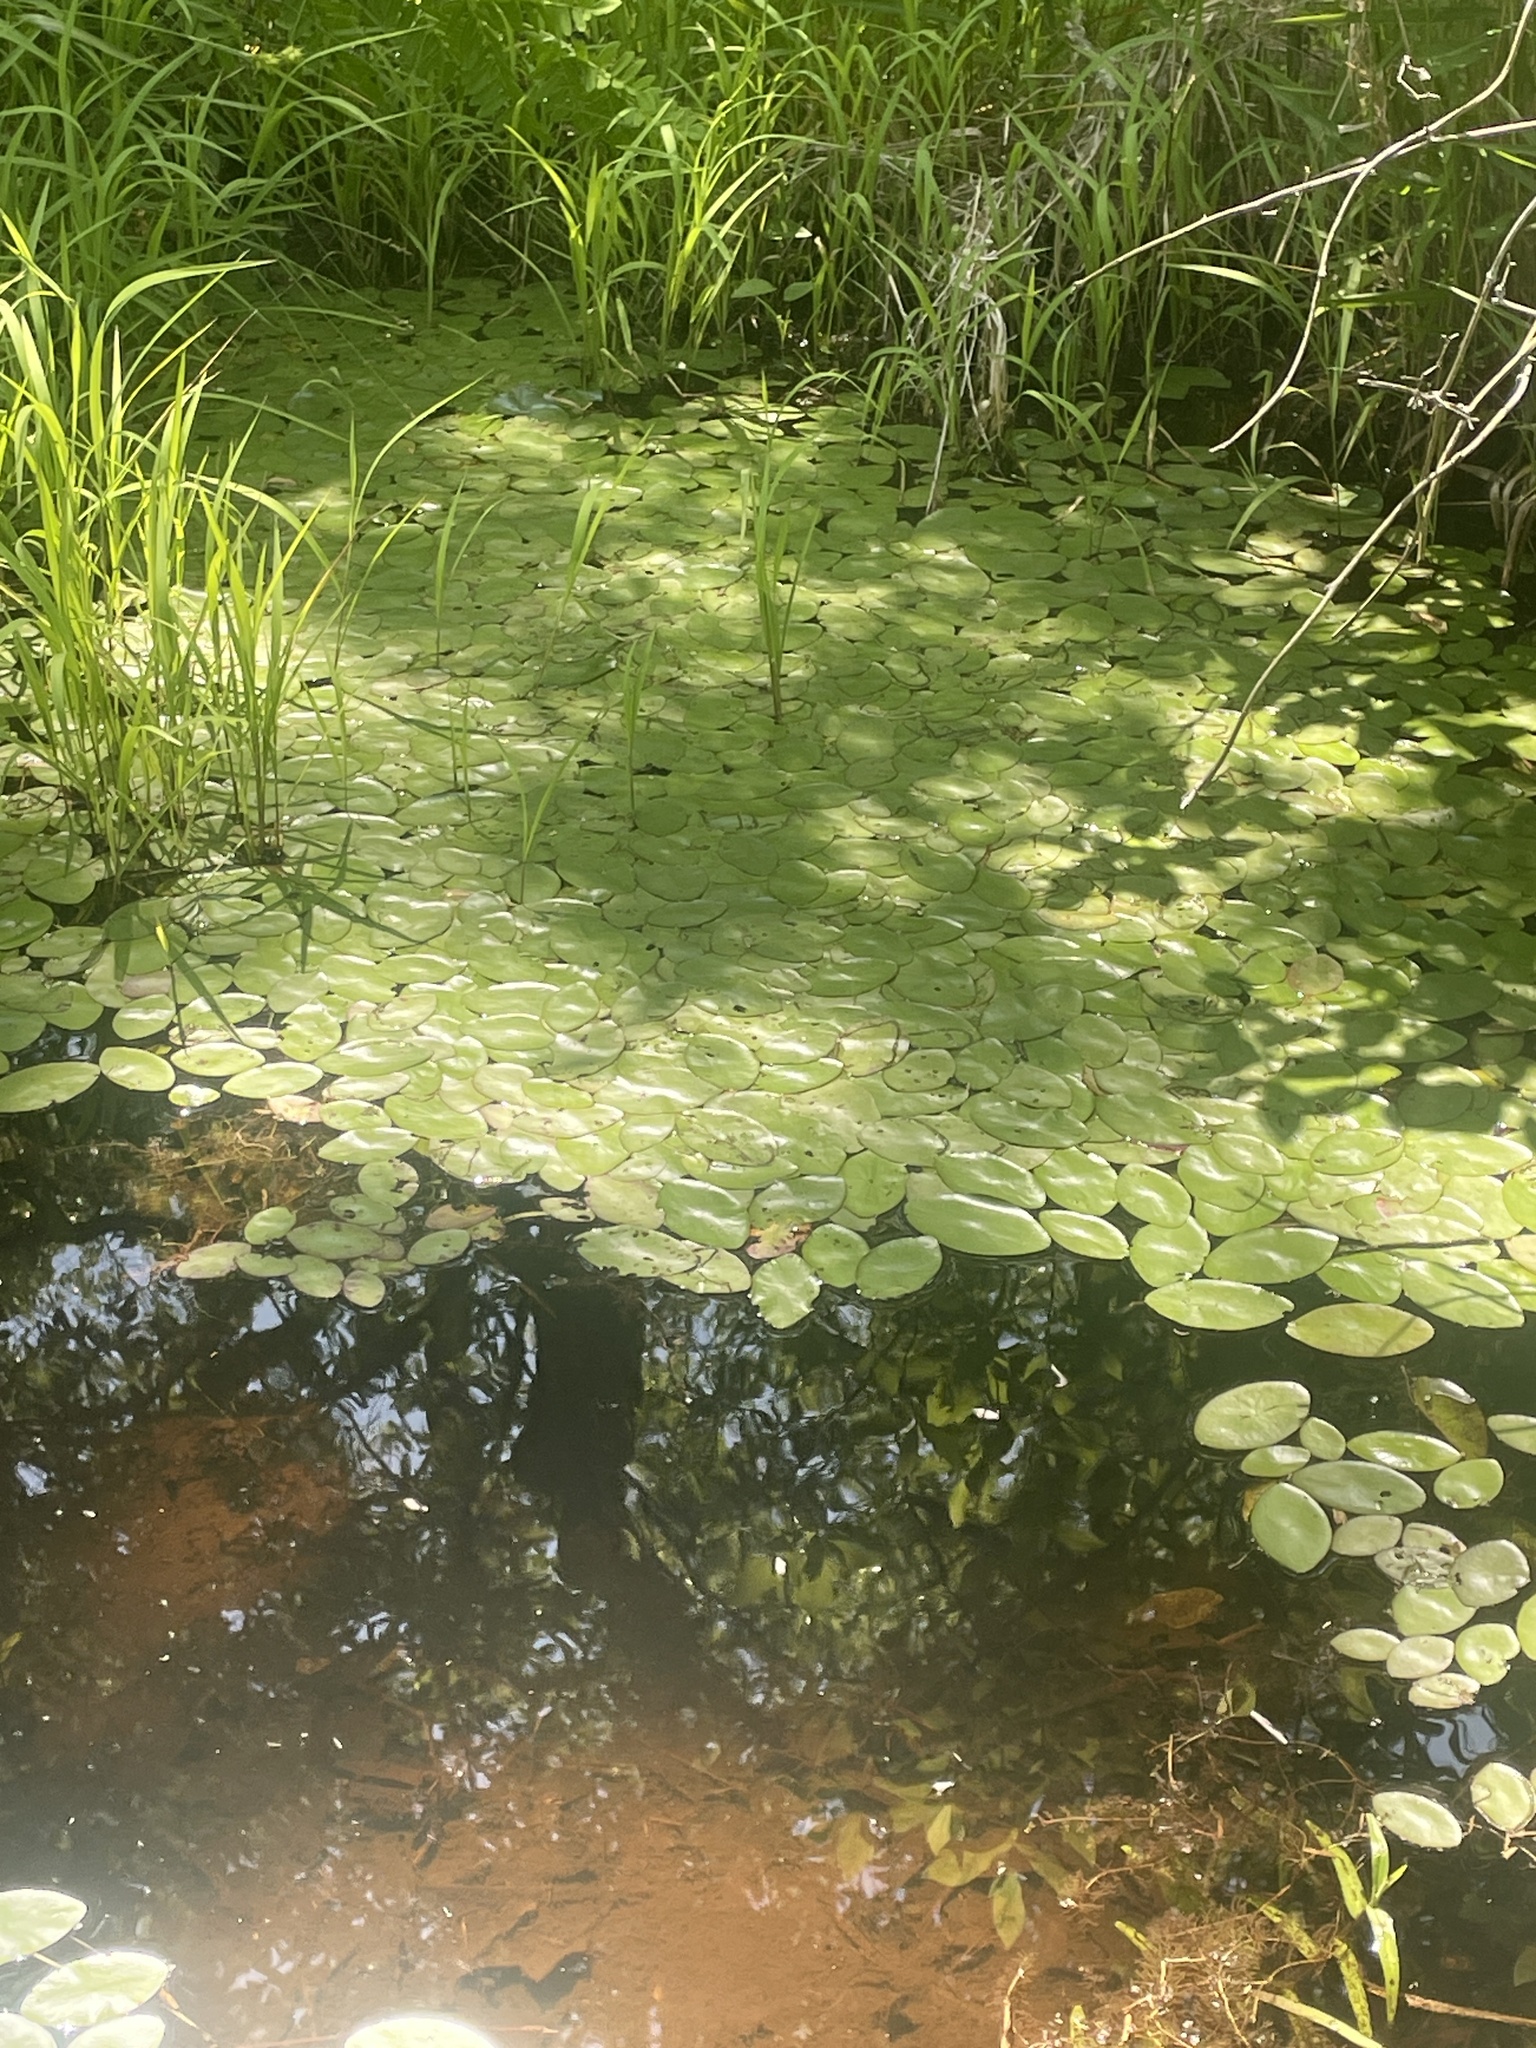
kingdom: Plantae
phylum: Tracheophyta
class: Magnoliopsida
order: Nymphaeales
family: Cabombaceae
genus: Brasenia
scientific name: Brasenia schreberi
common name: Water-shield
